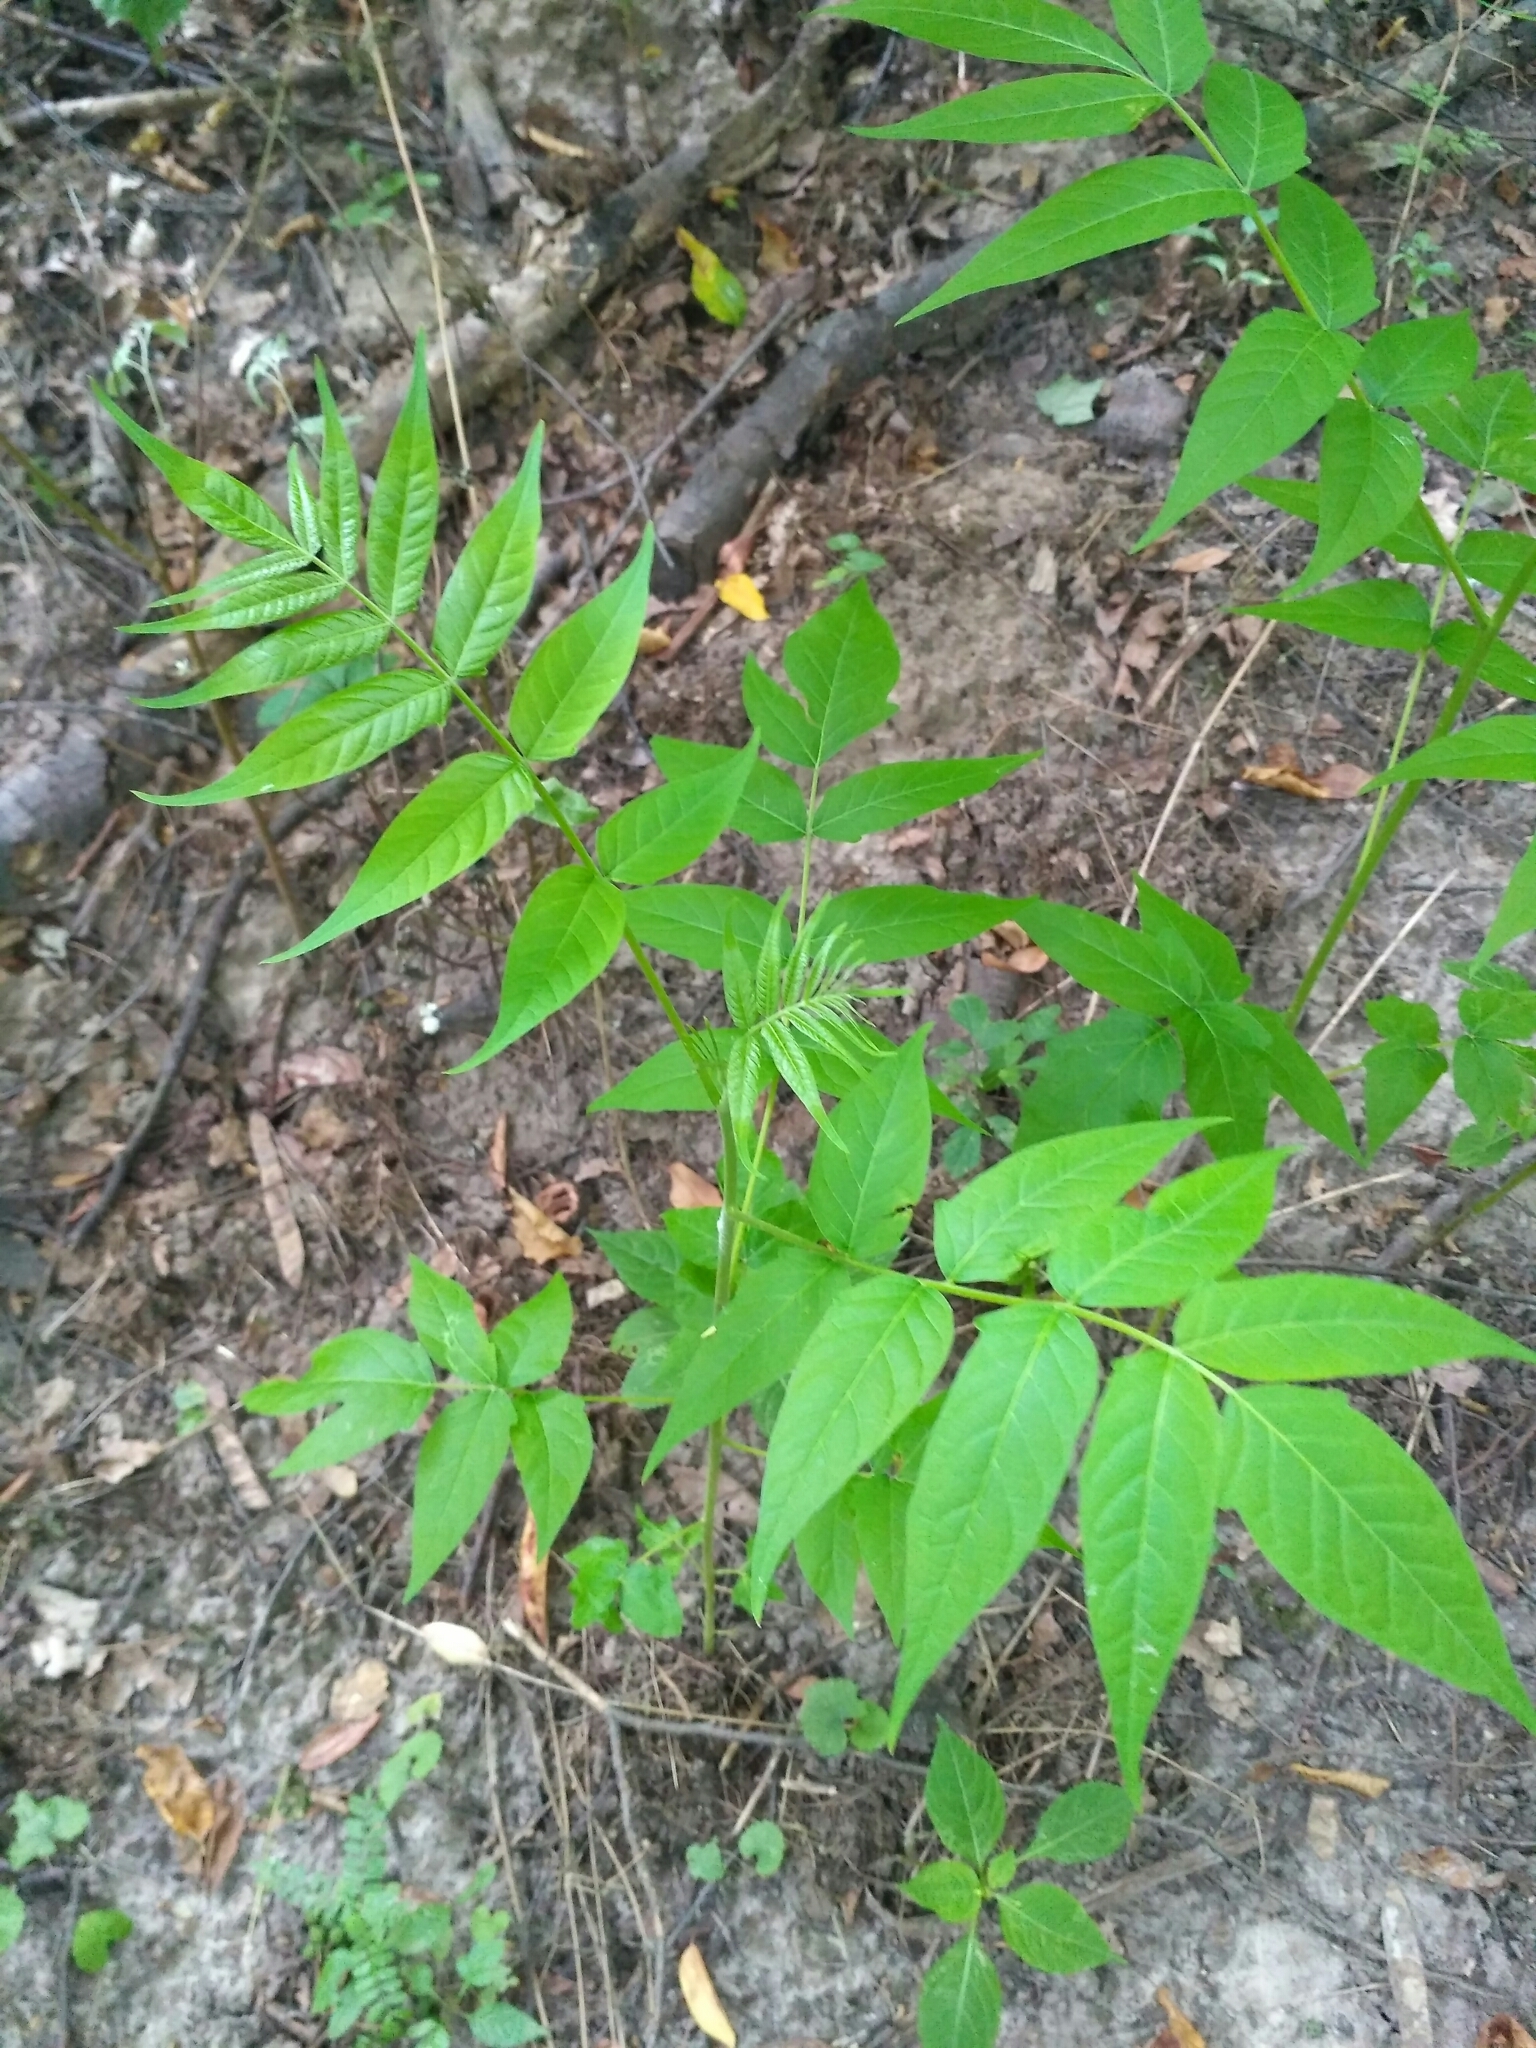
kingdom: Plantae
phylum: Tracheophyta
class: Magnoliopsida
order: Sapindales
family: Simaroubaceae
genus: Ailanthus
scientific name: Ailanthus altissima
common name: Tree-of-heaven
